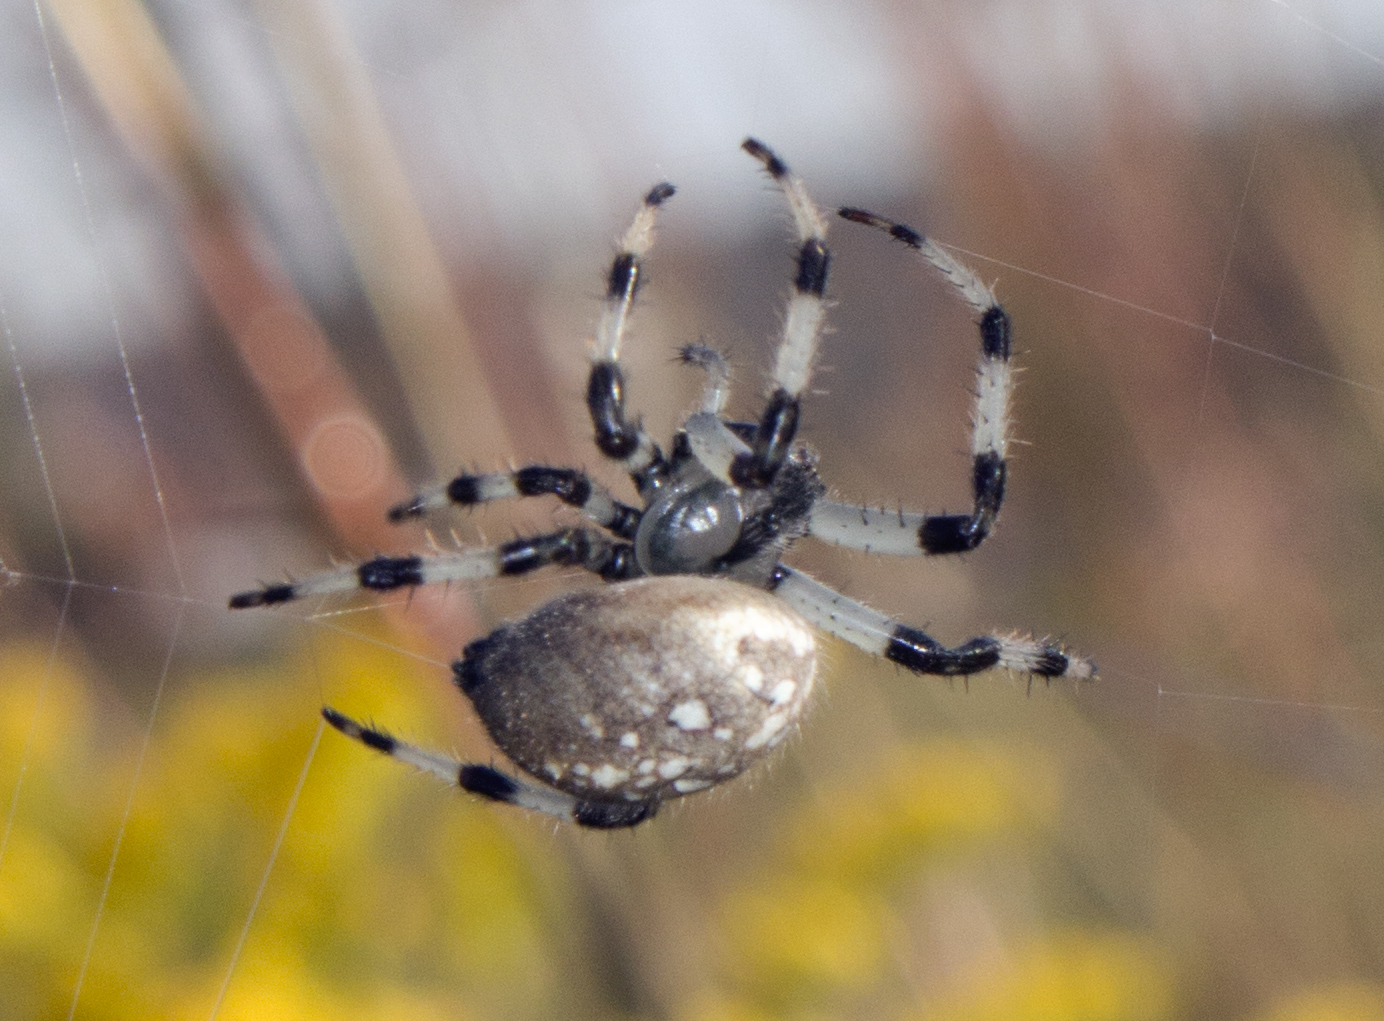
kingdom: Animalia
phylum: Arthropoda
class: Arachnida
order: Araneae
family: Araneidae
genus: Araneus
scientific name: Araneus trifolium
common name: Shamrock orbweaver
